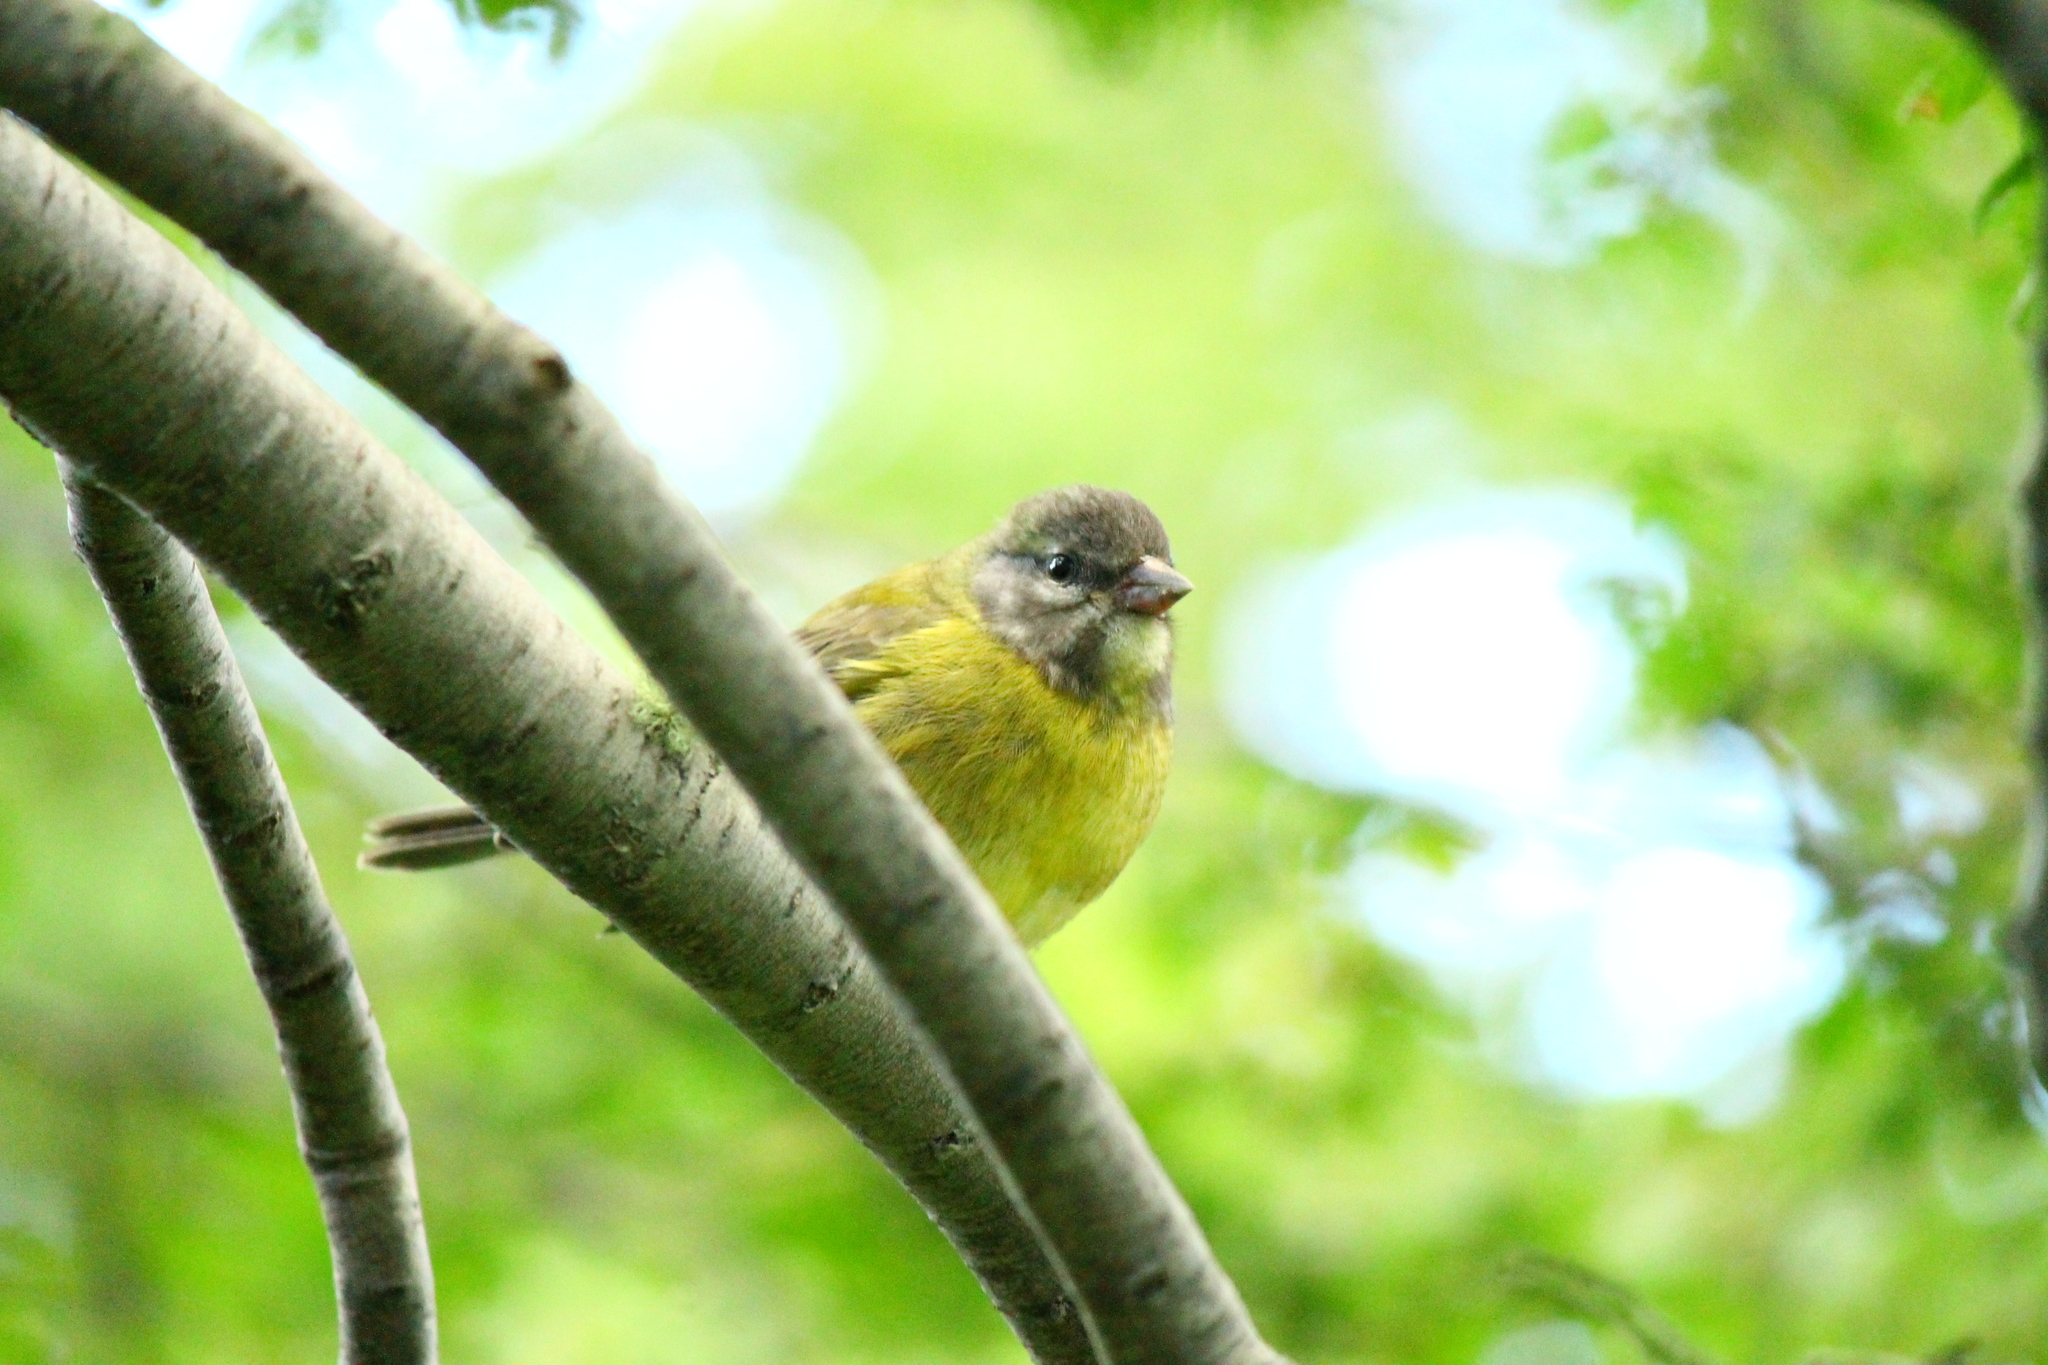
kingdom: Animalia
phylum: Chordata
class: Aves
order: Passeriformes
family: Thraupidae
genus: Phrygilus
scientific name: Phrygilus patagonicus
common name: Patagonian sierra finch
